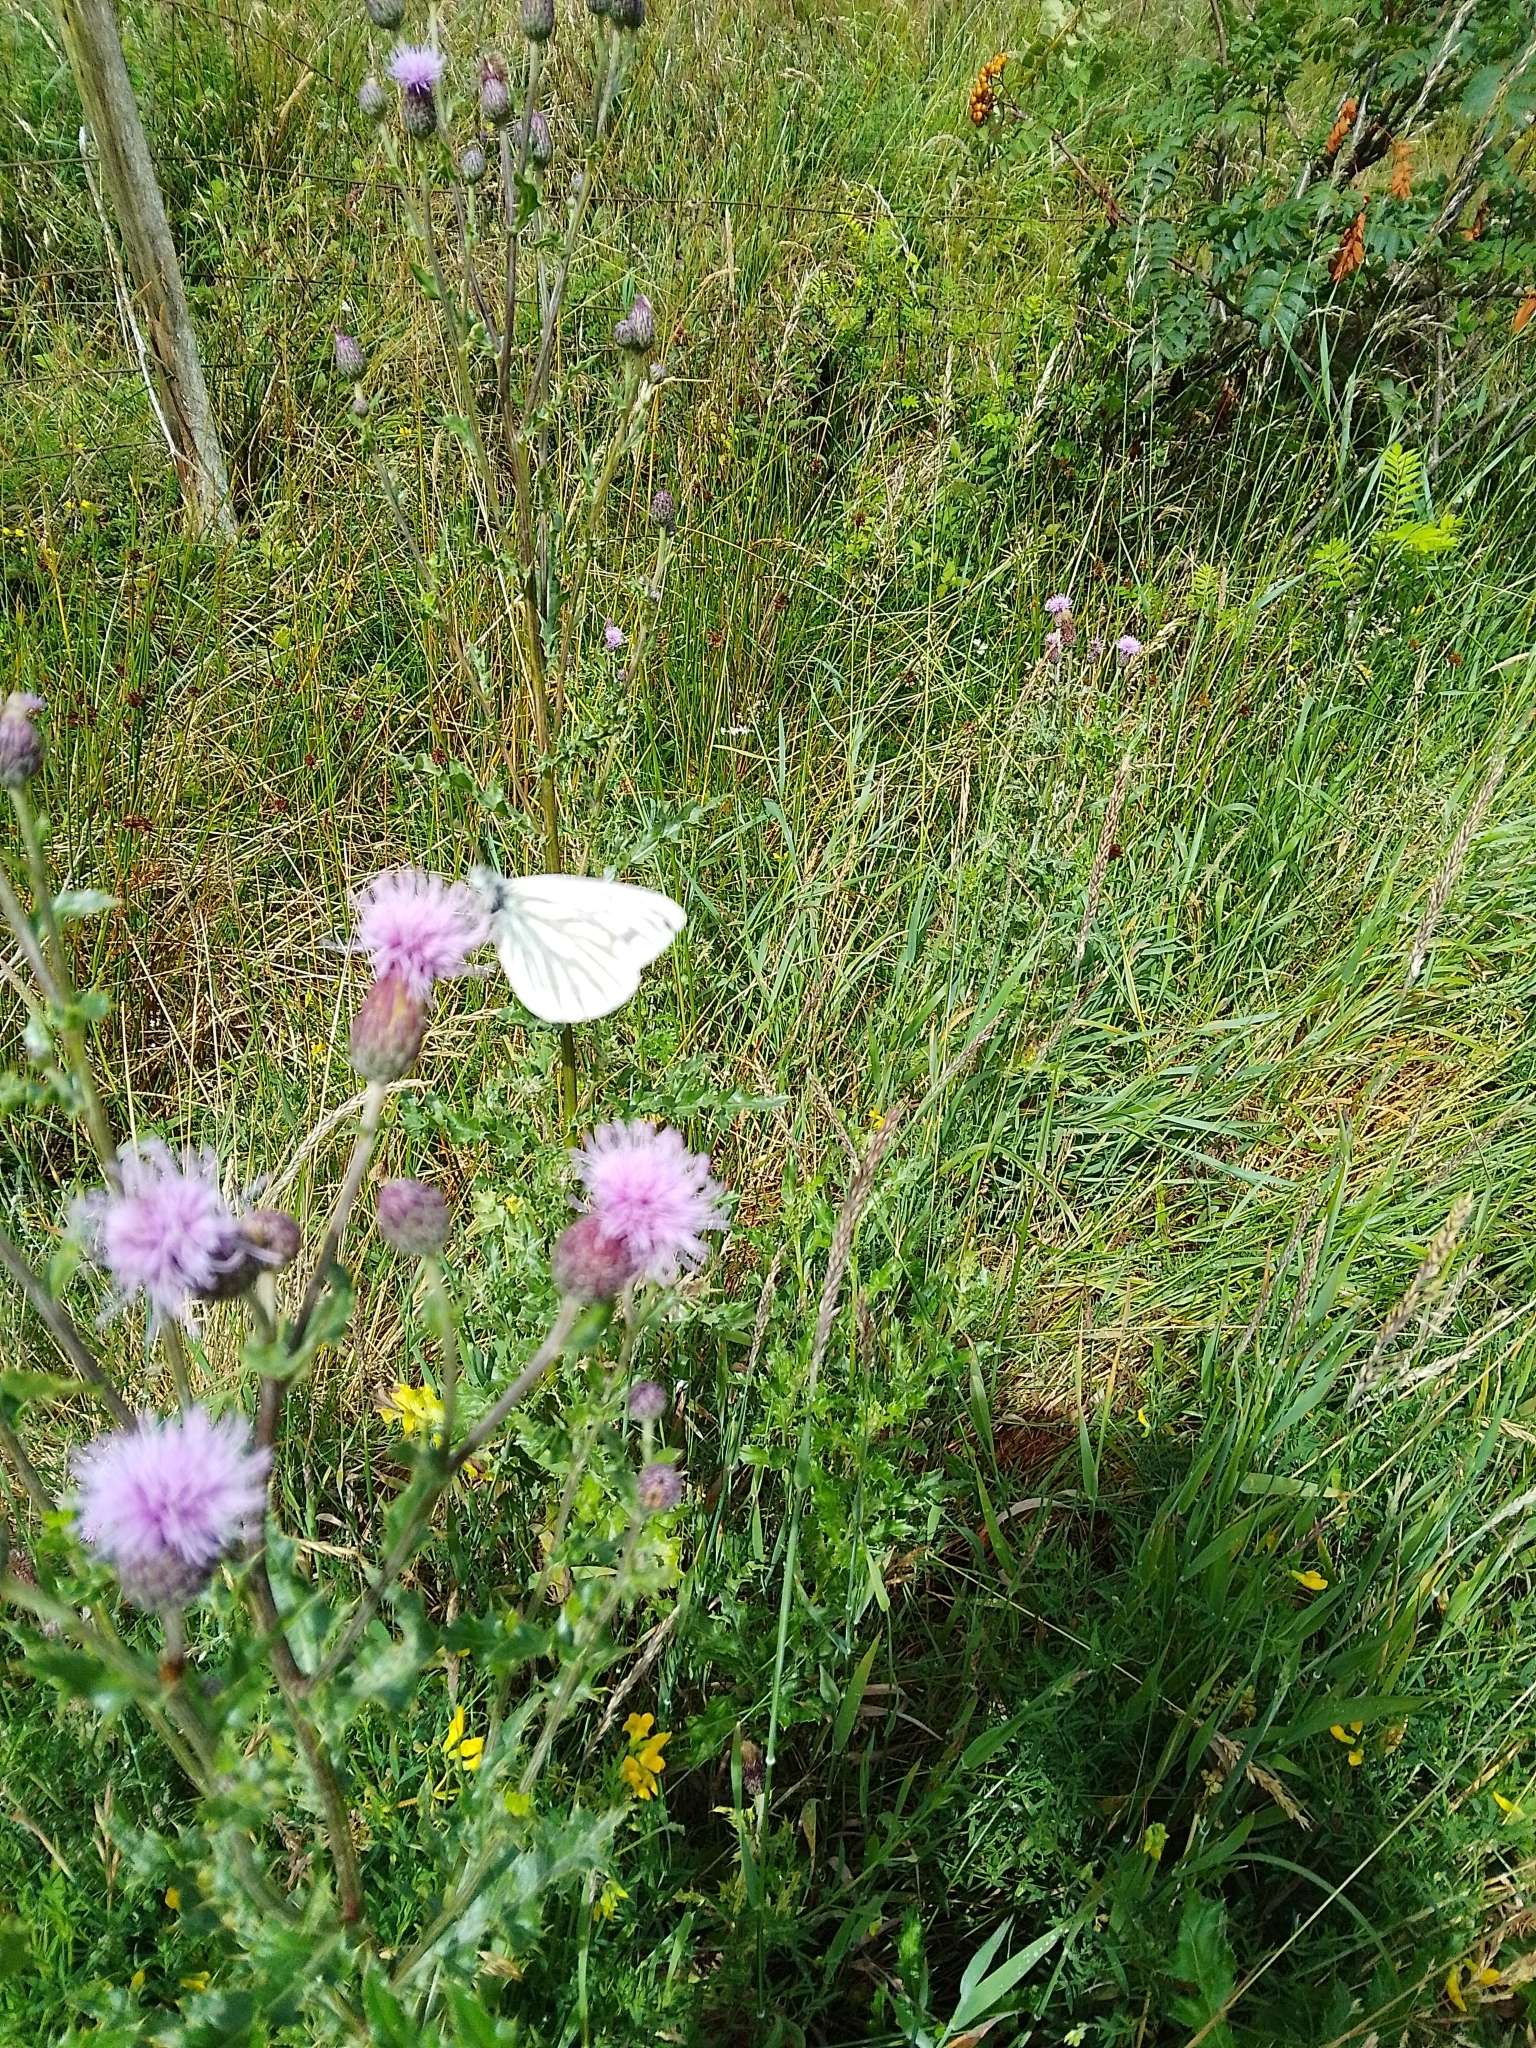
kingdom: Animalia
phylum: Arthropoda
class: Insecta
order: Lepidoptera
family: Pieridae
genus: Pieris
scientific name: Pieris napi
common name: Green-veined white
